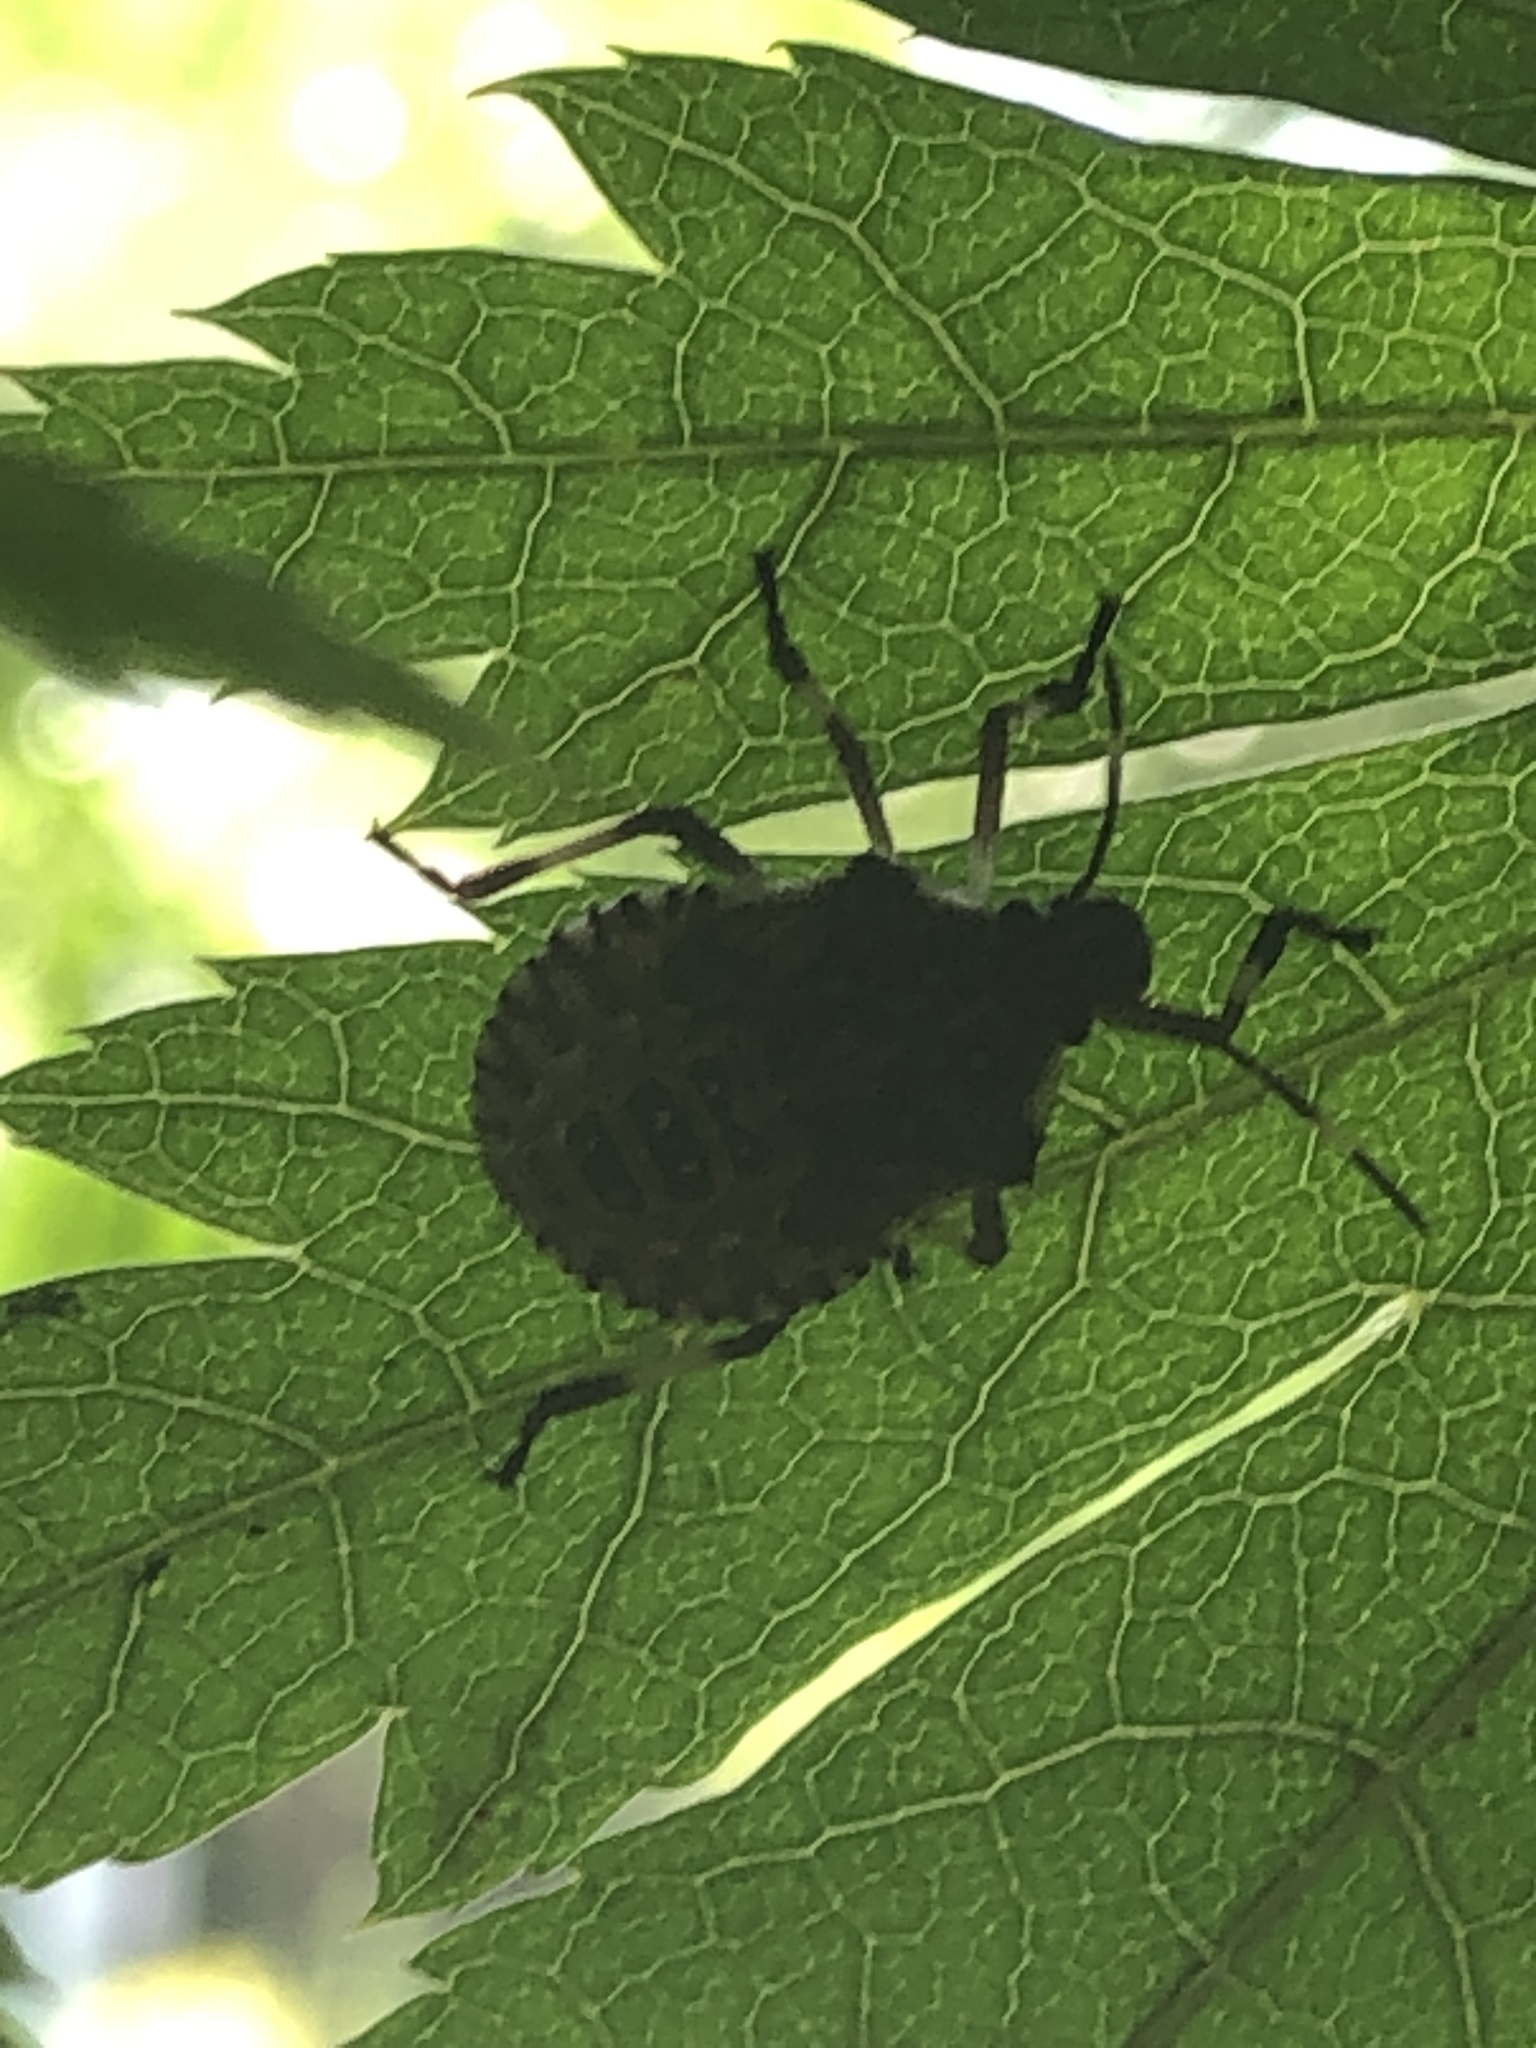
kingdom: Animalia
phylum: Arthropoda
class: Insecta
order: Hemiptera
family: Pentatomidae
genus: Halyomorpha
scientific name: Halyomorpha halys
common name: Brown marmorated stink bug
